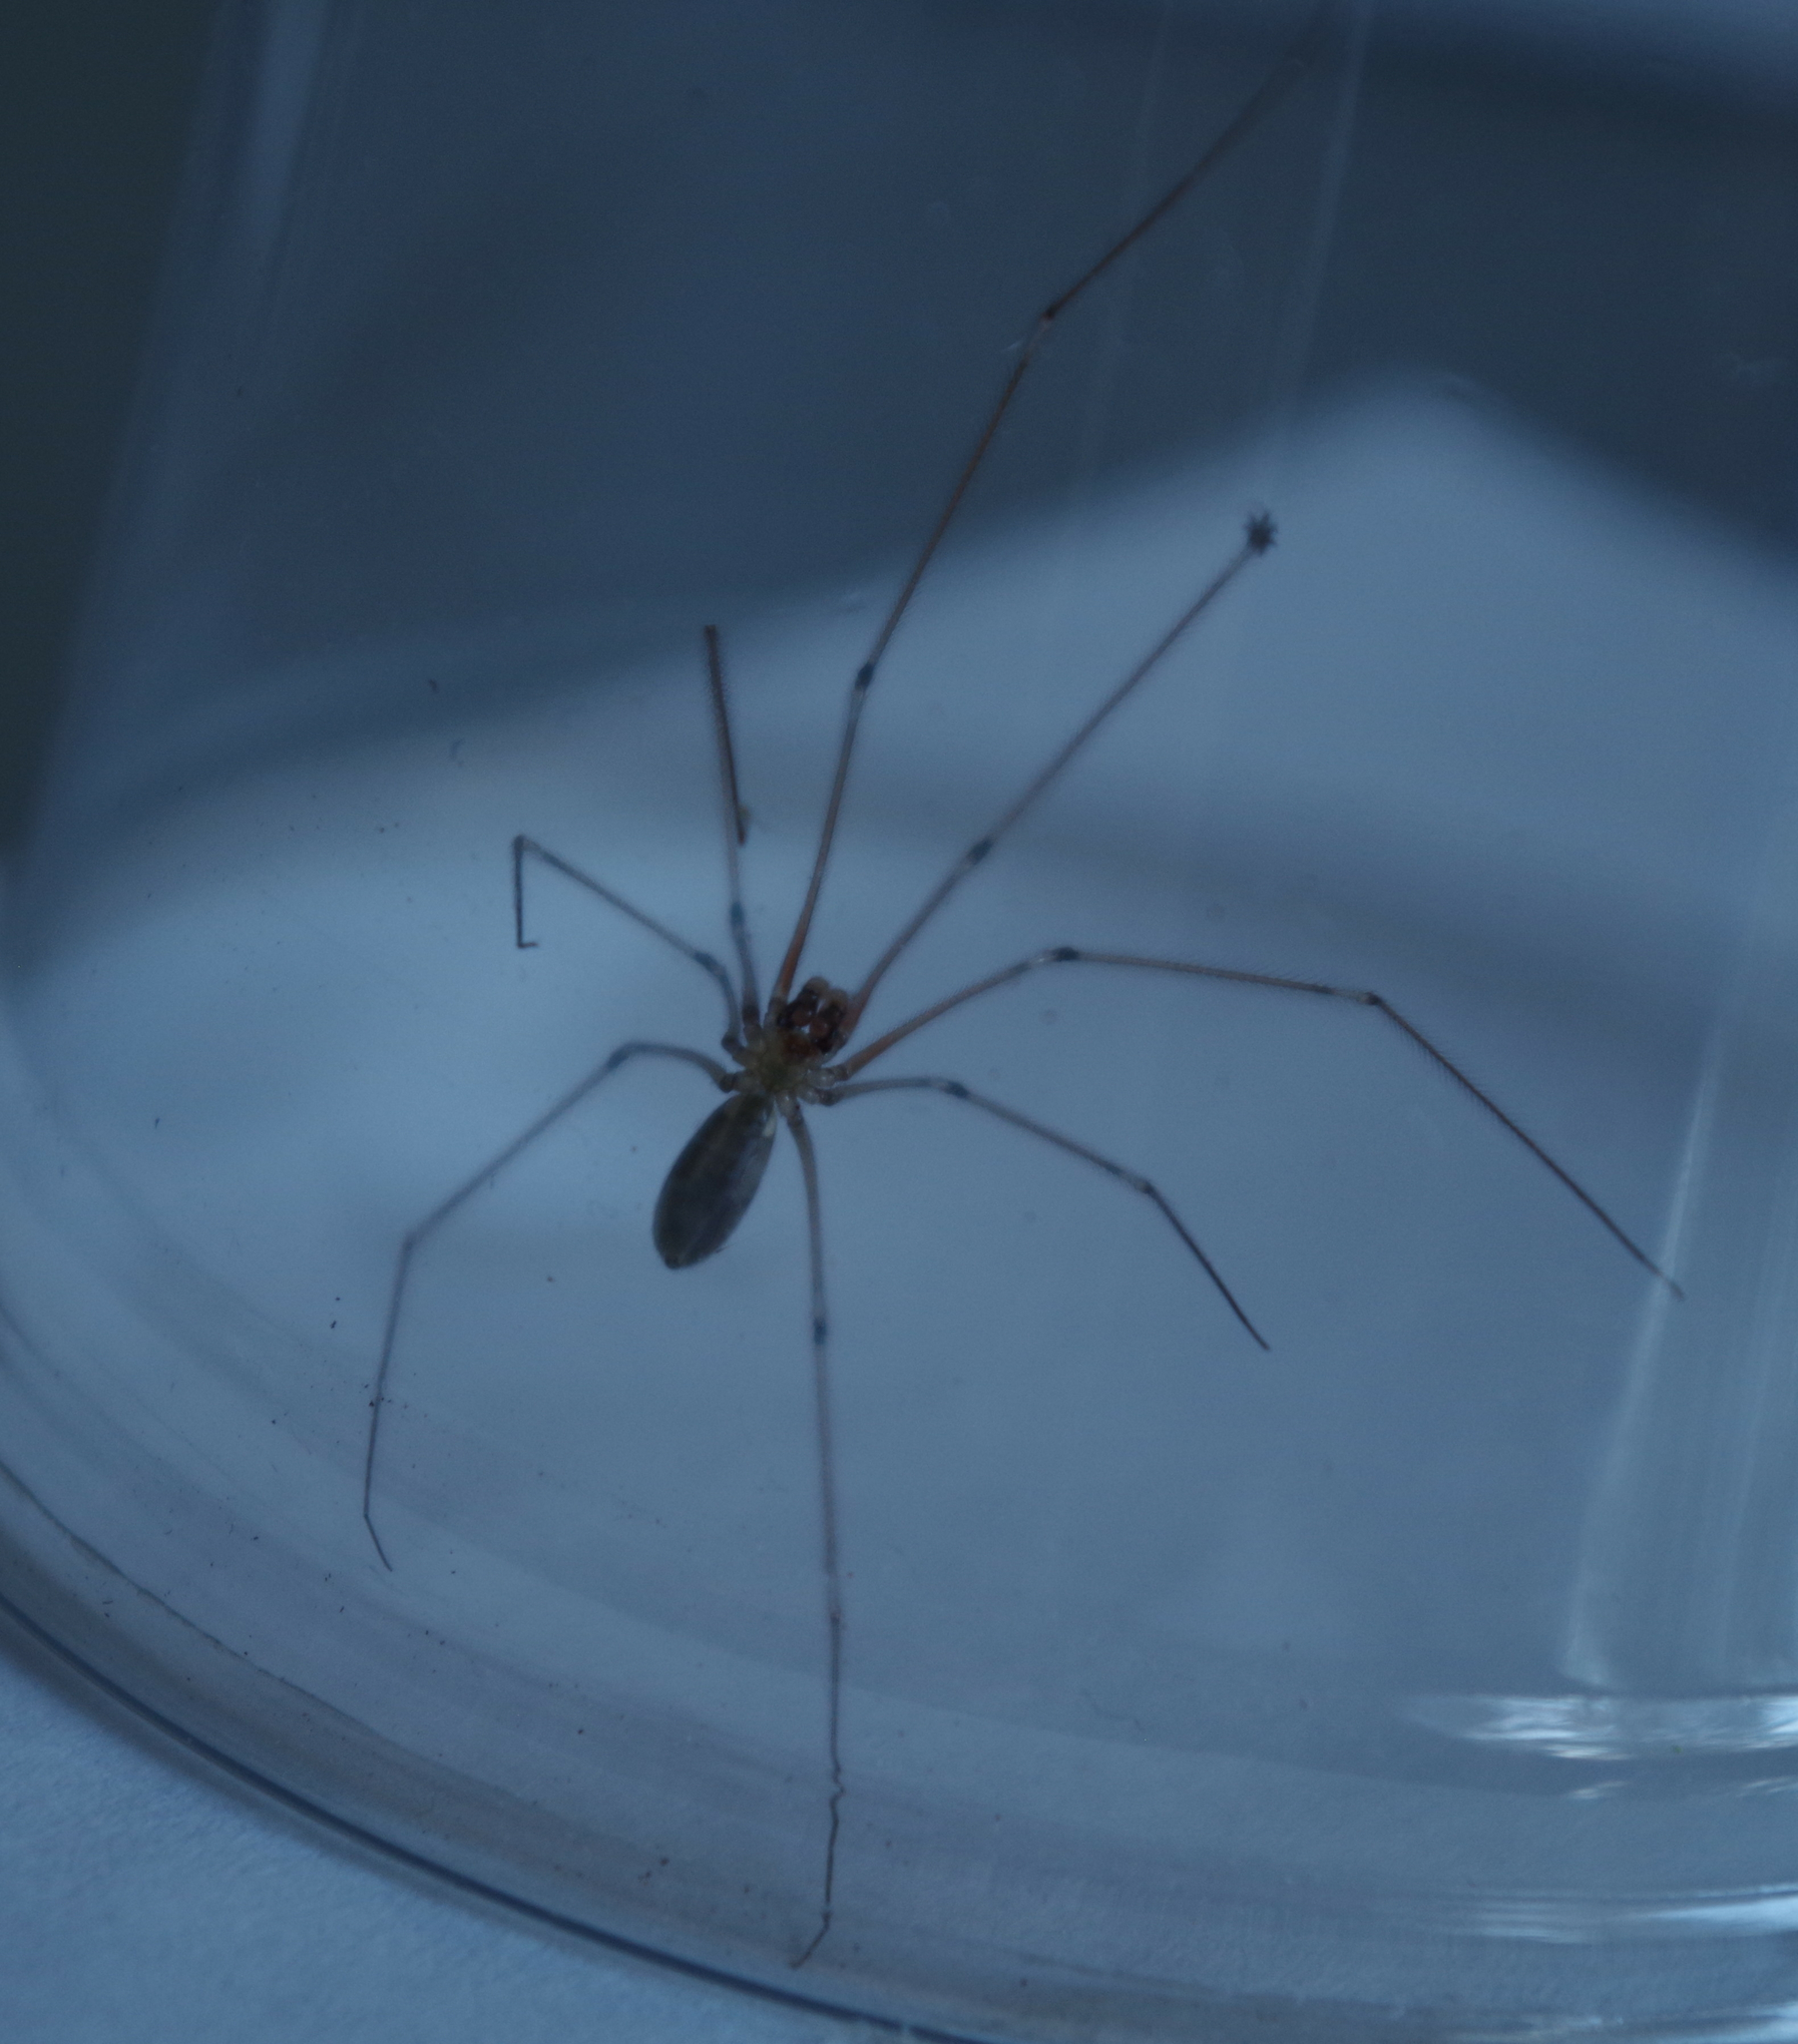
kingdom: Animalia
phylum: Arthropoda
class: Arachnida
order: Araneae
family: Pholcidae
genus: Pholcus
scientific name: Pholcus phalangioides
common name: Longbodied cellar spider
